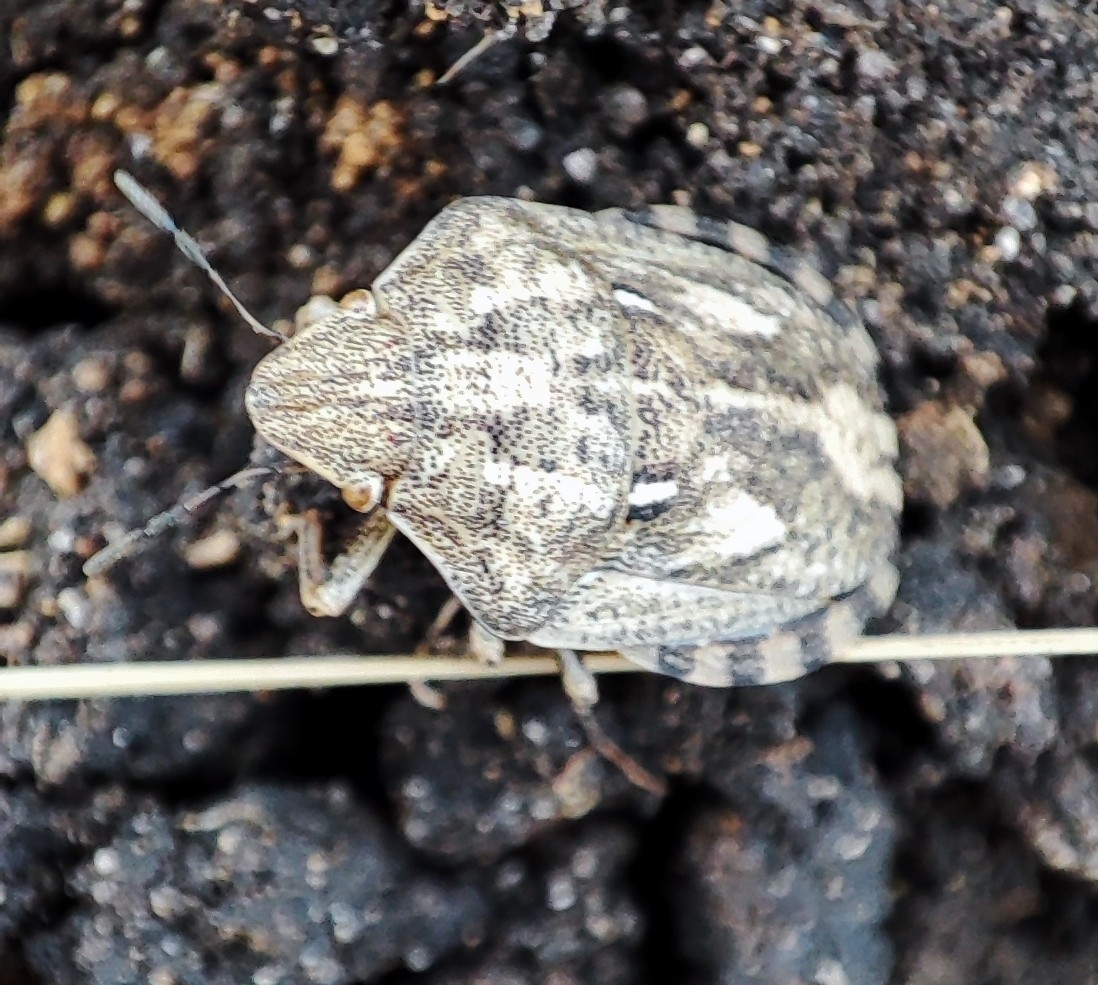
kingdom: Animalia
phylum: Arthropoda
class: Insecta
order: Hemiptera
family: Scutelleridae
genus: Eurygaster
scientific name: Eurygaster maura
